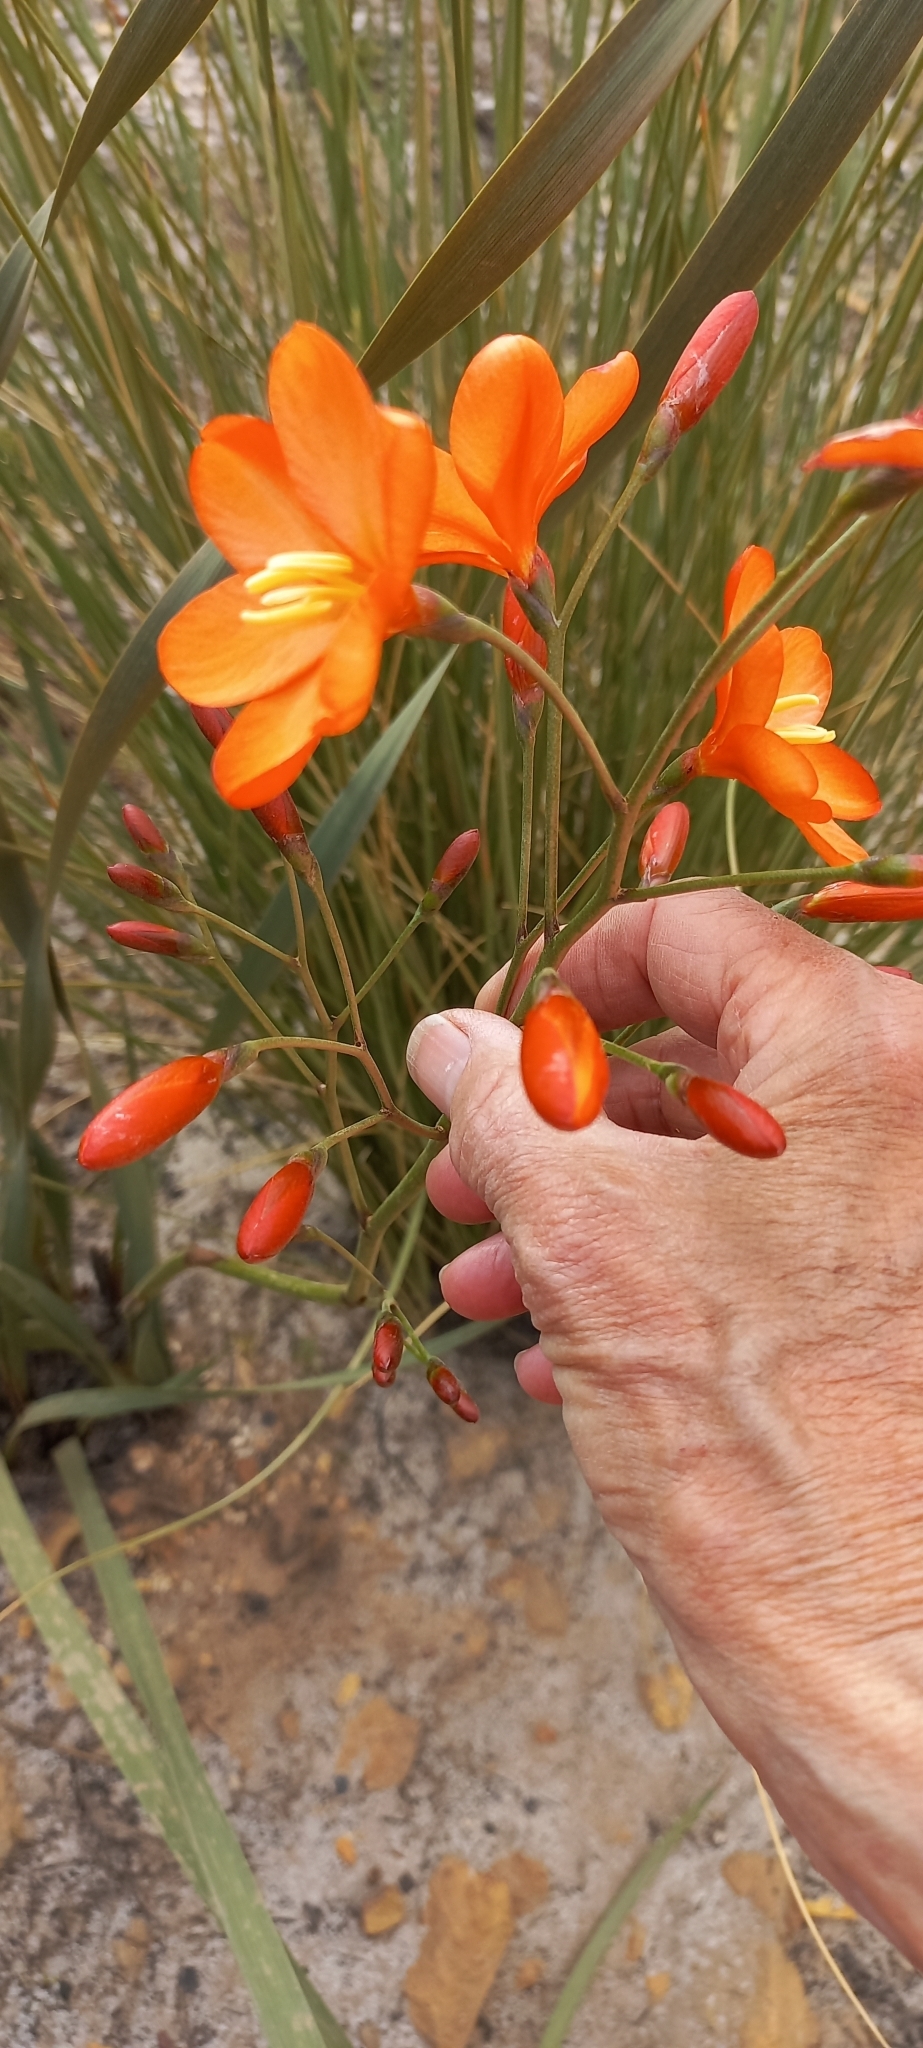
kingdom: Plantae
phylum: Tracheophyta
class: Liliopsida
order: Asparagales
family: Iridaceae
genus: Pillansia
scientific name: Pillansia templemannii
